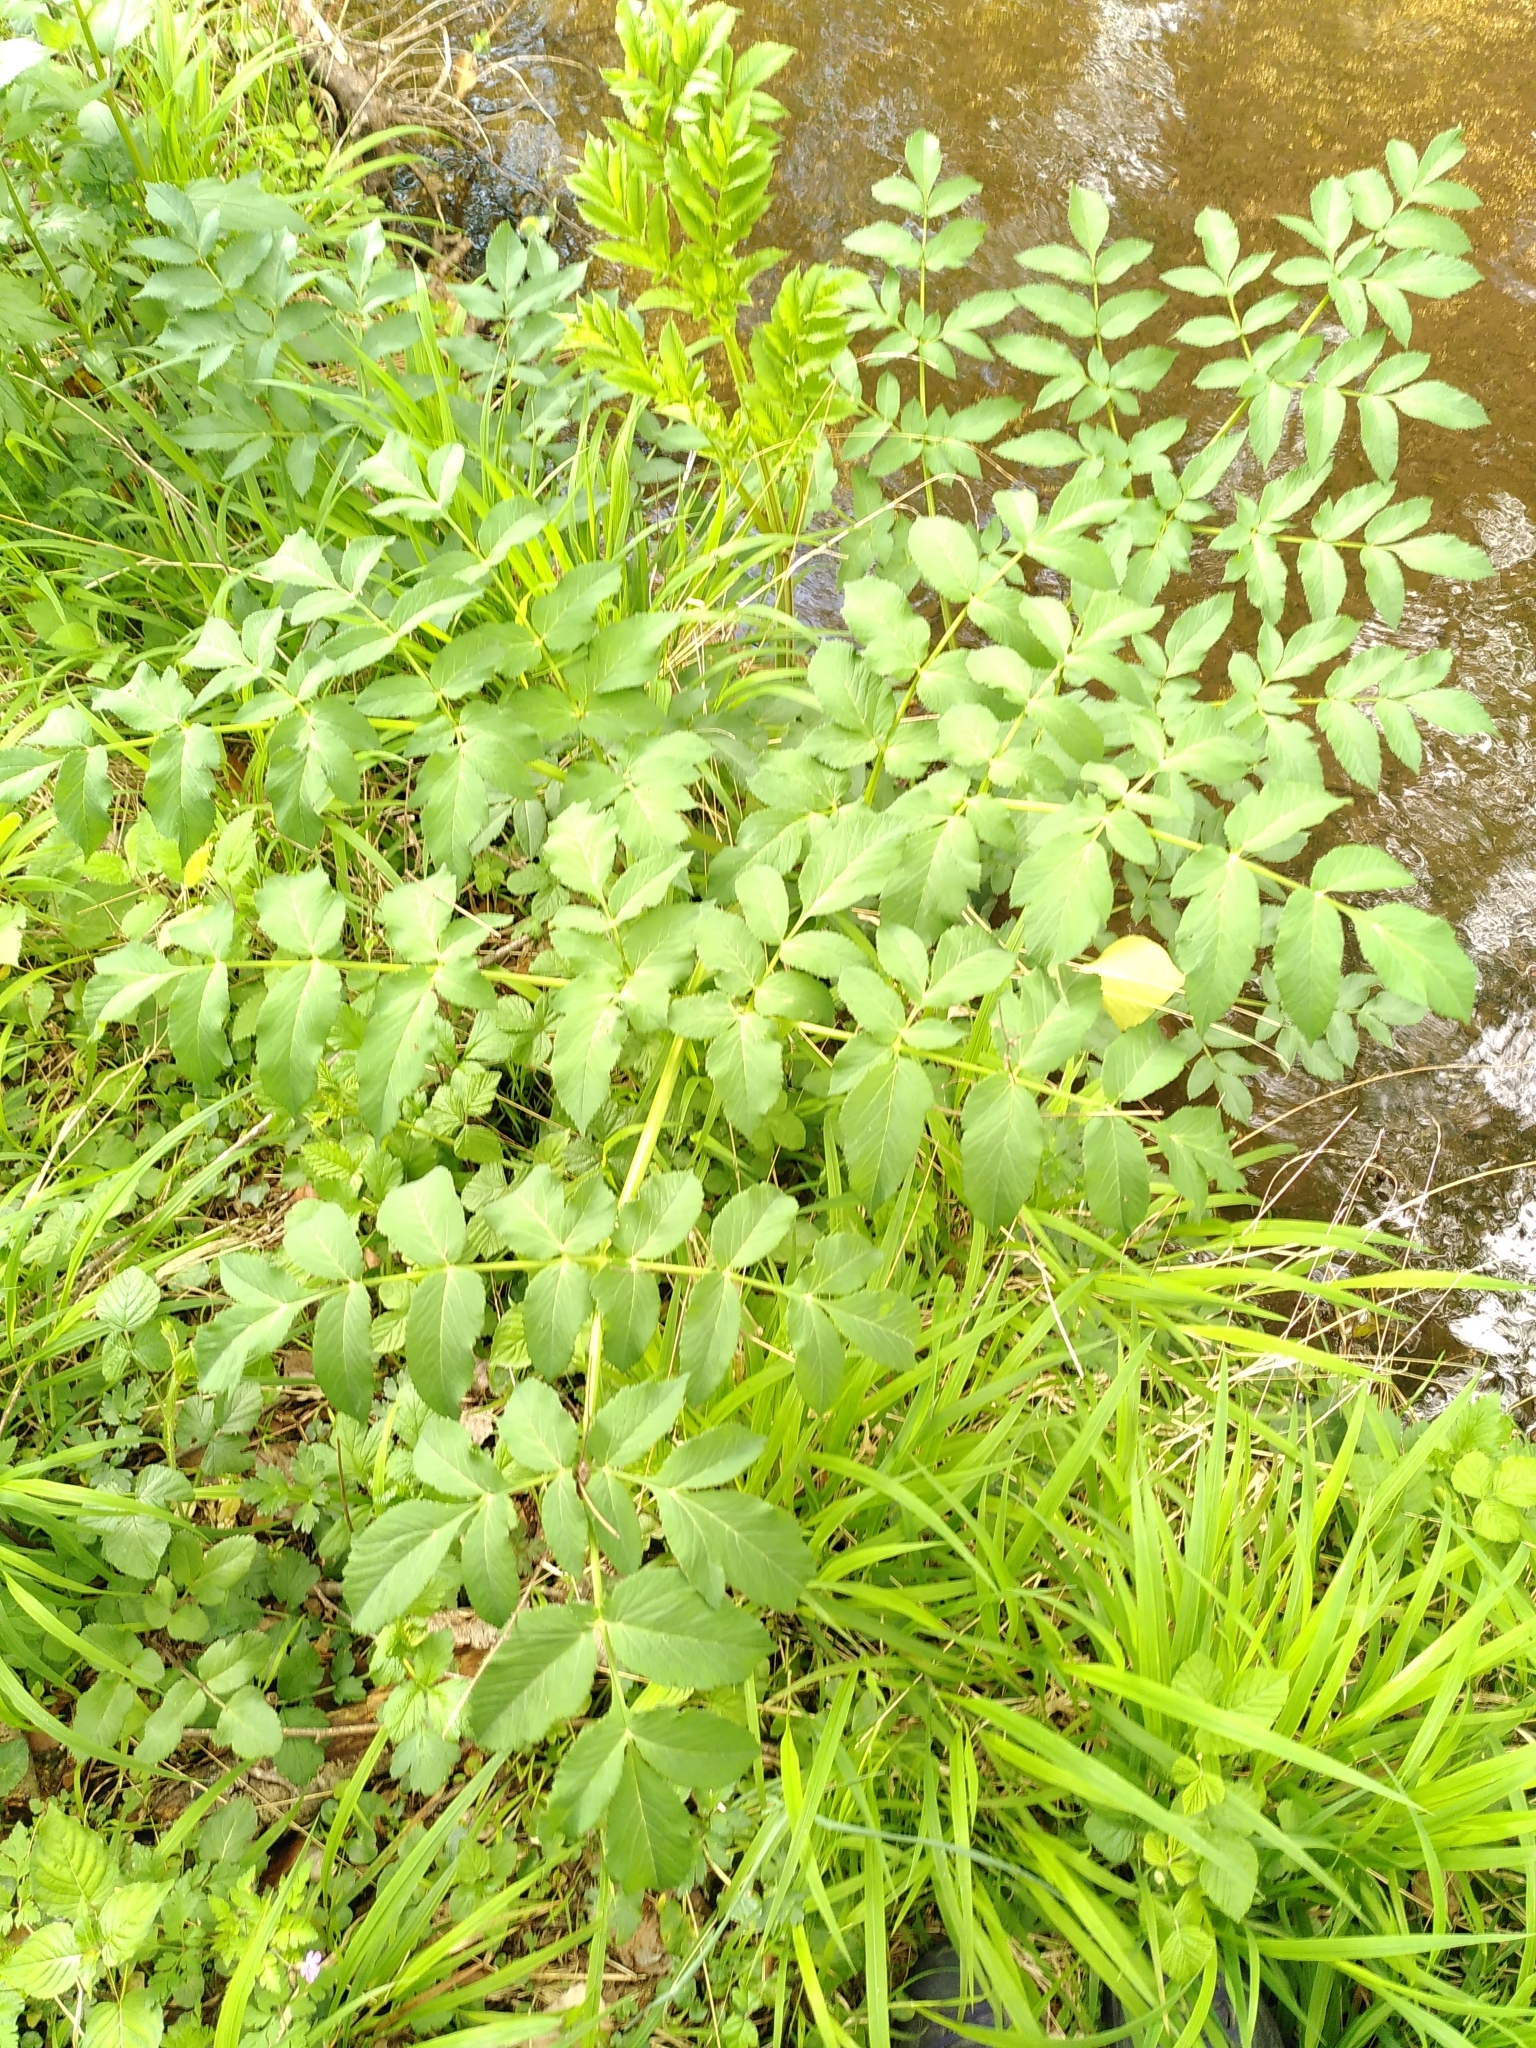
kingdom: Plantae
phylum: Tracheophyta
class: Magnoliopsida
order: Apiales
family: Apiaceae
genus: Angelica
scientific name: Angelica sylvestris
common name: Wild angelica
